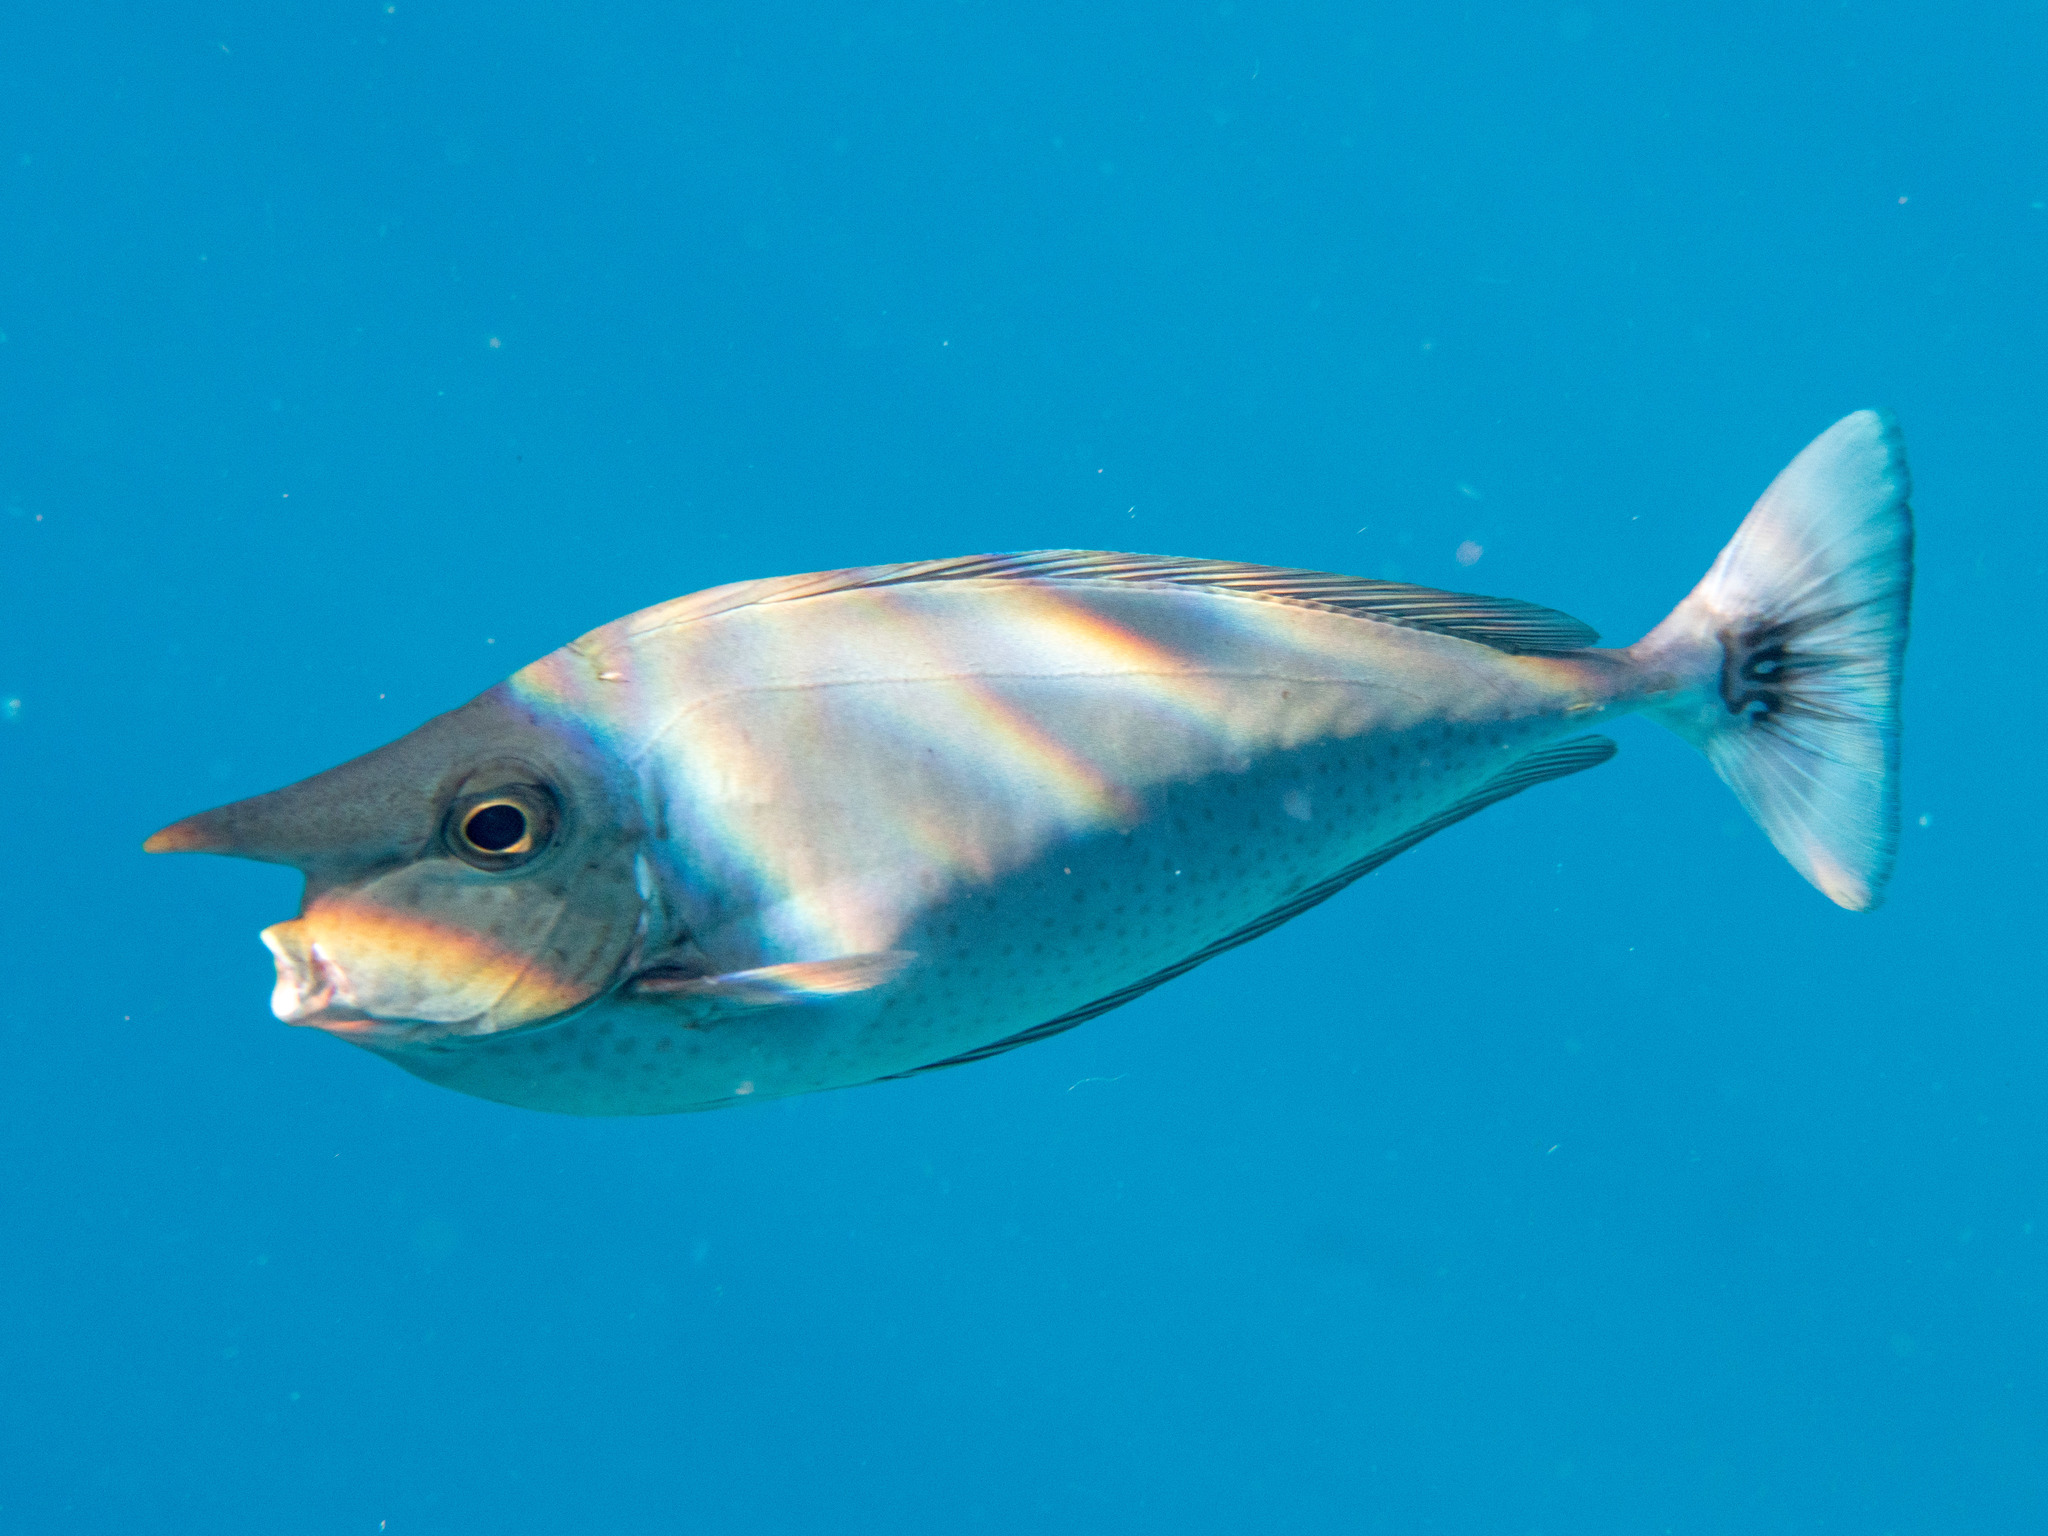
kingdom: Animalia
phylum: Chordata
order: Perciformes
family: Acanthuridae
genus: Naso
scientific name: Naso brevirostris
